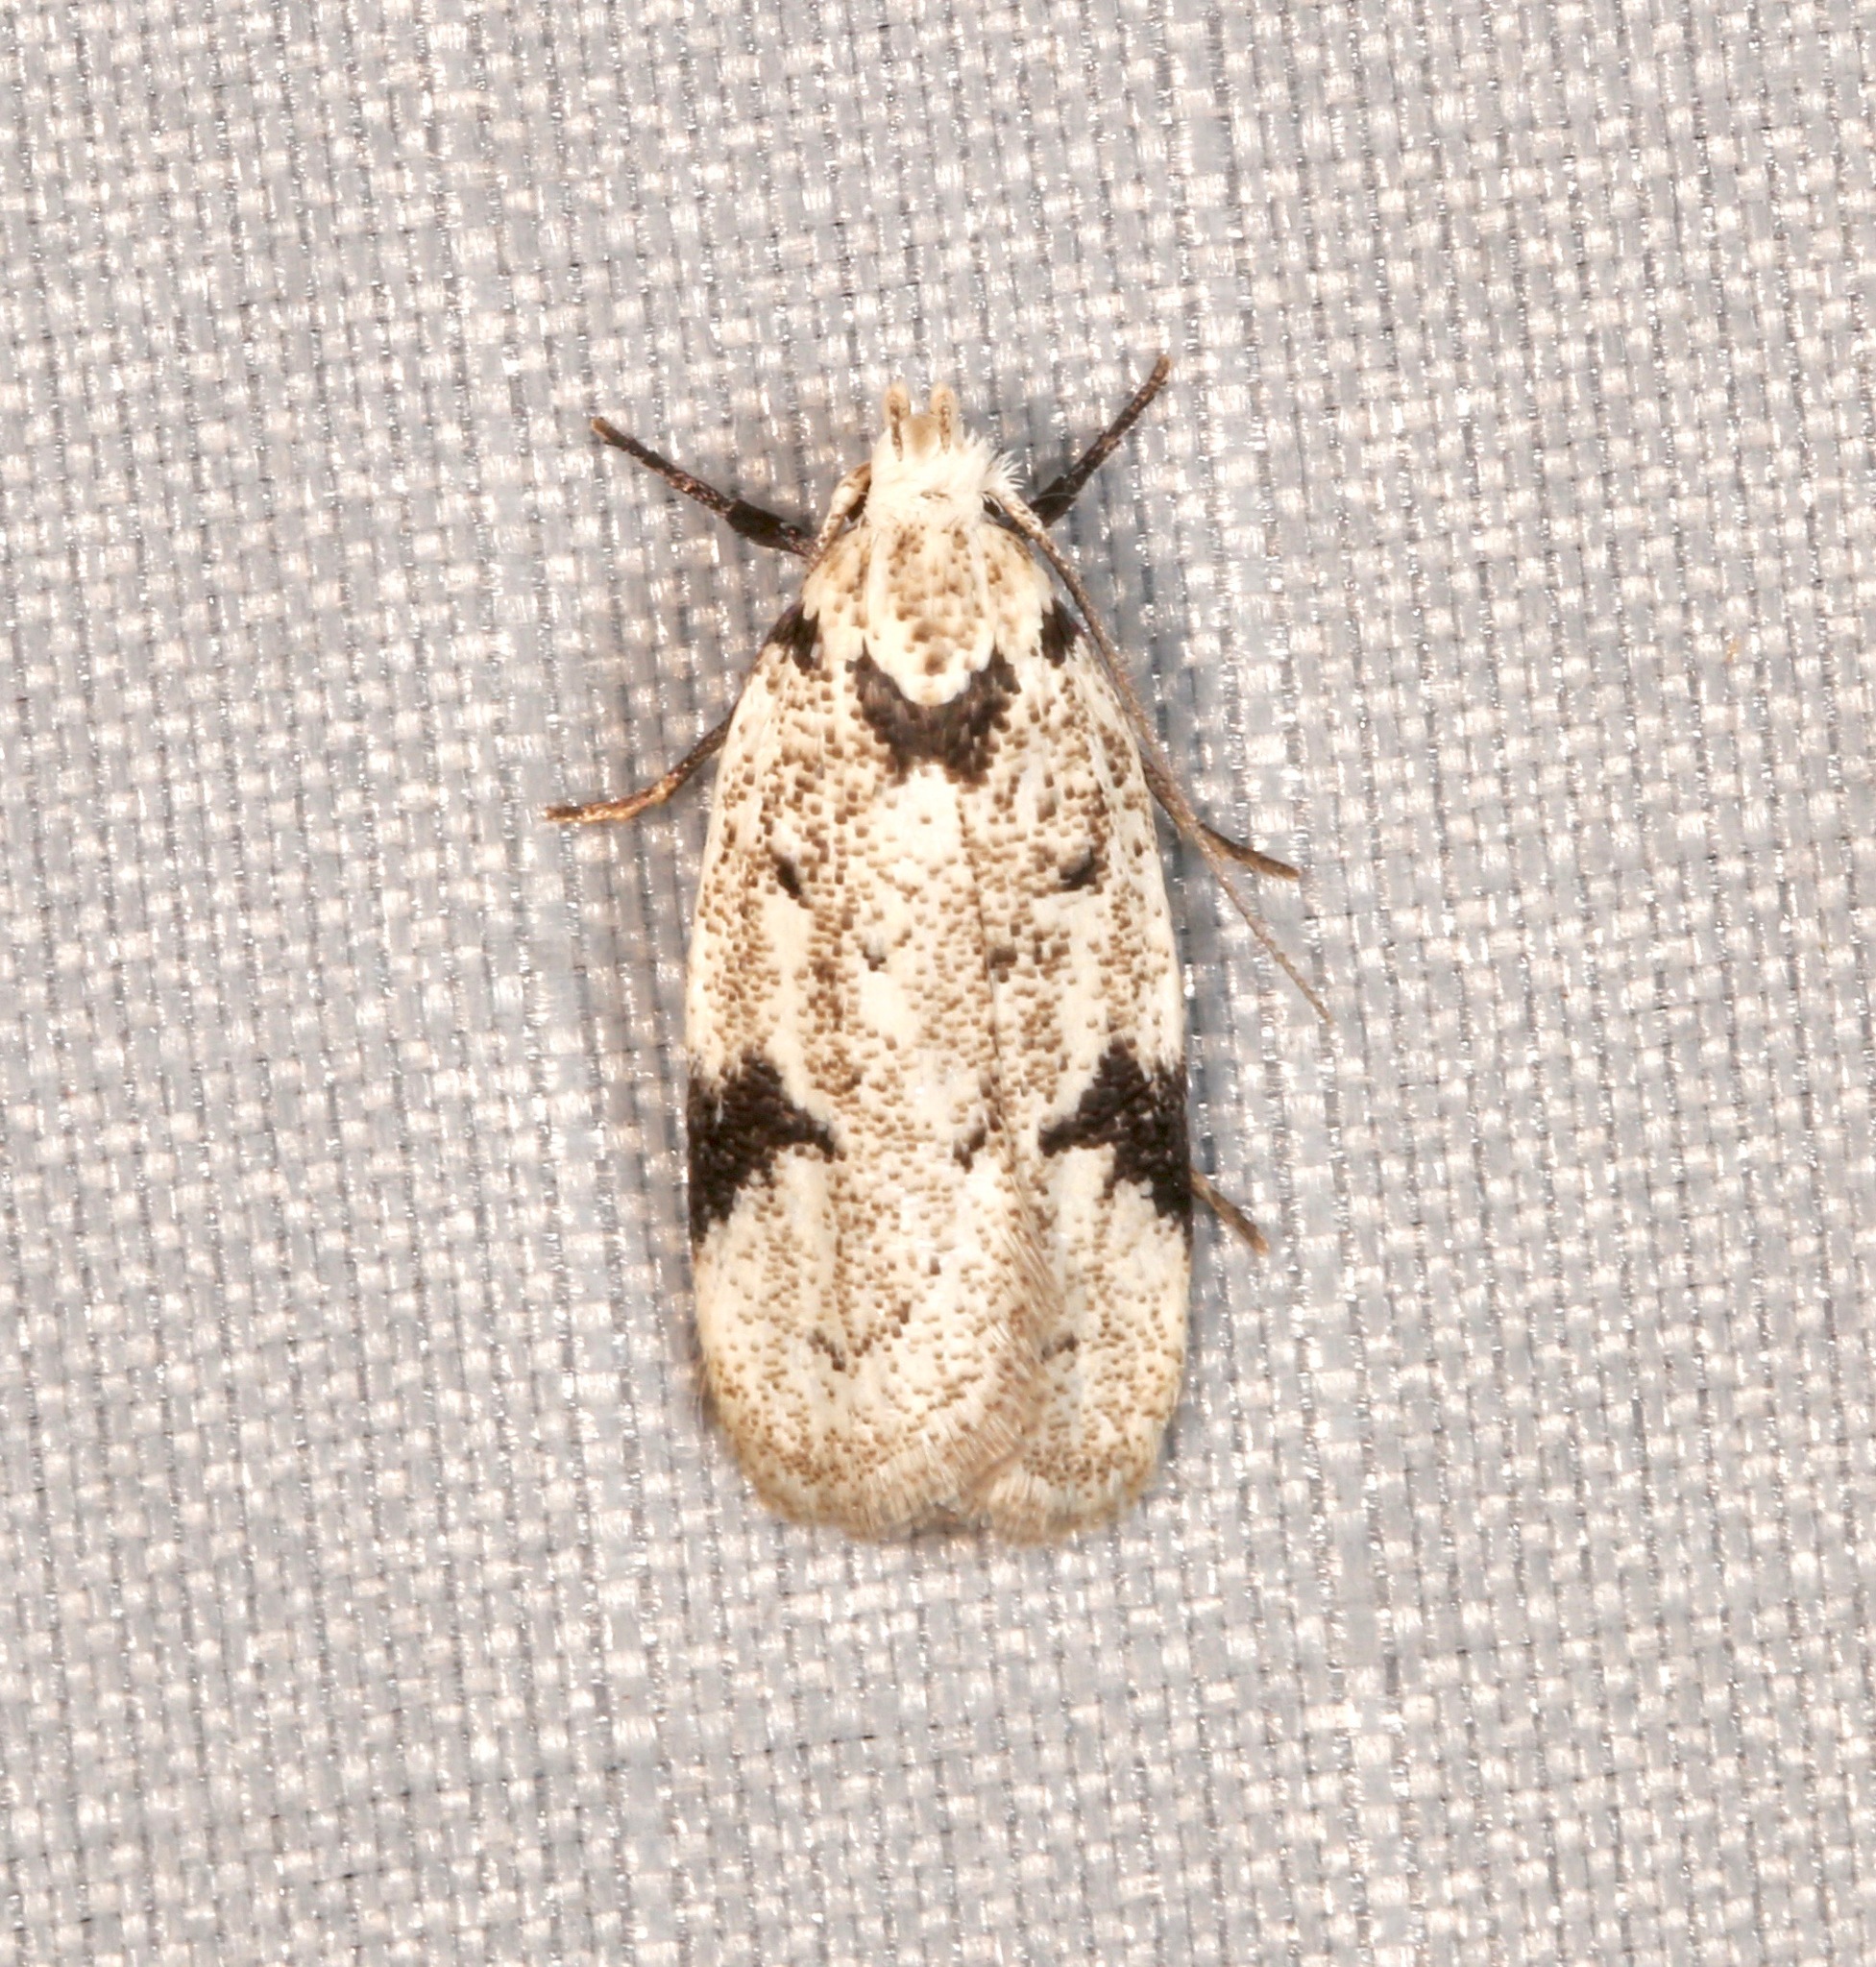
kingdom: Animalia
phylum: Arthropoda
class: Insecta
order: Lepidoptera
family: Oecophoridae
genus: Inga
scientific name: Inga sparsiciliella
